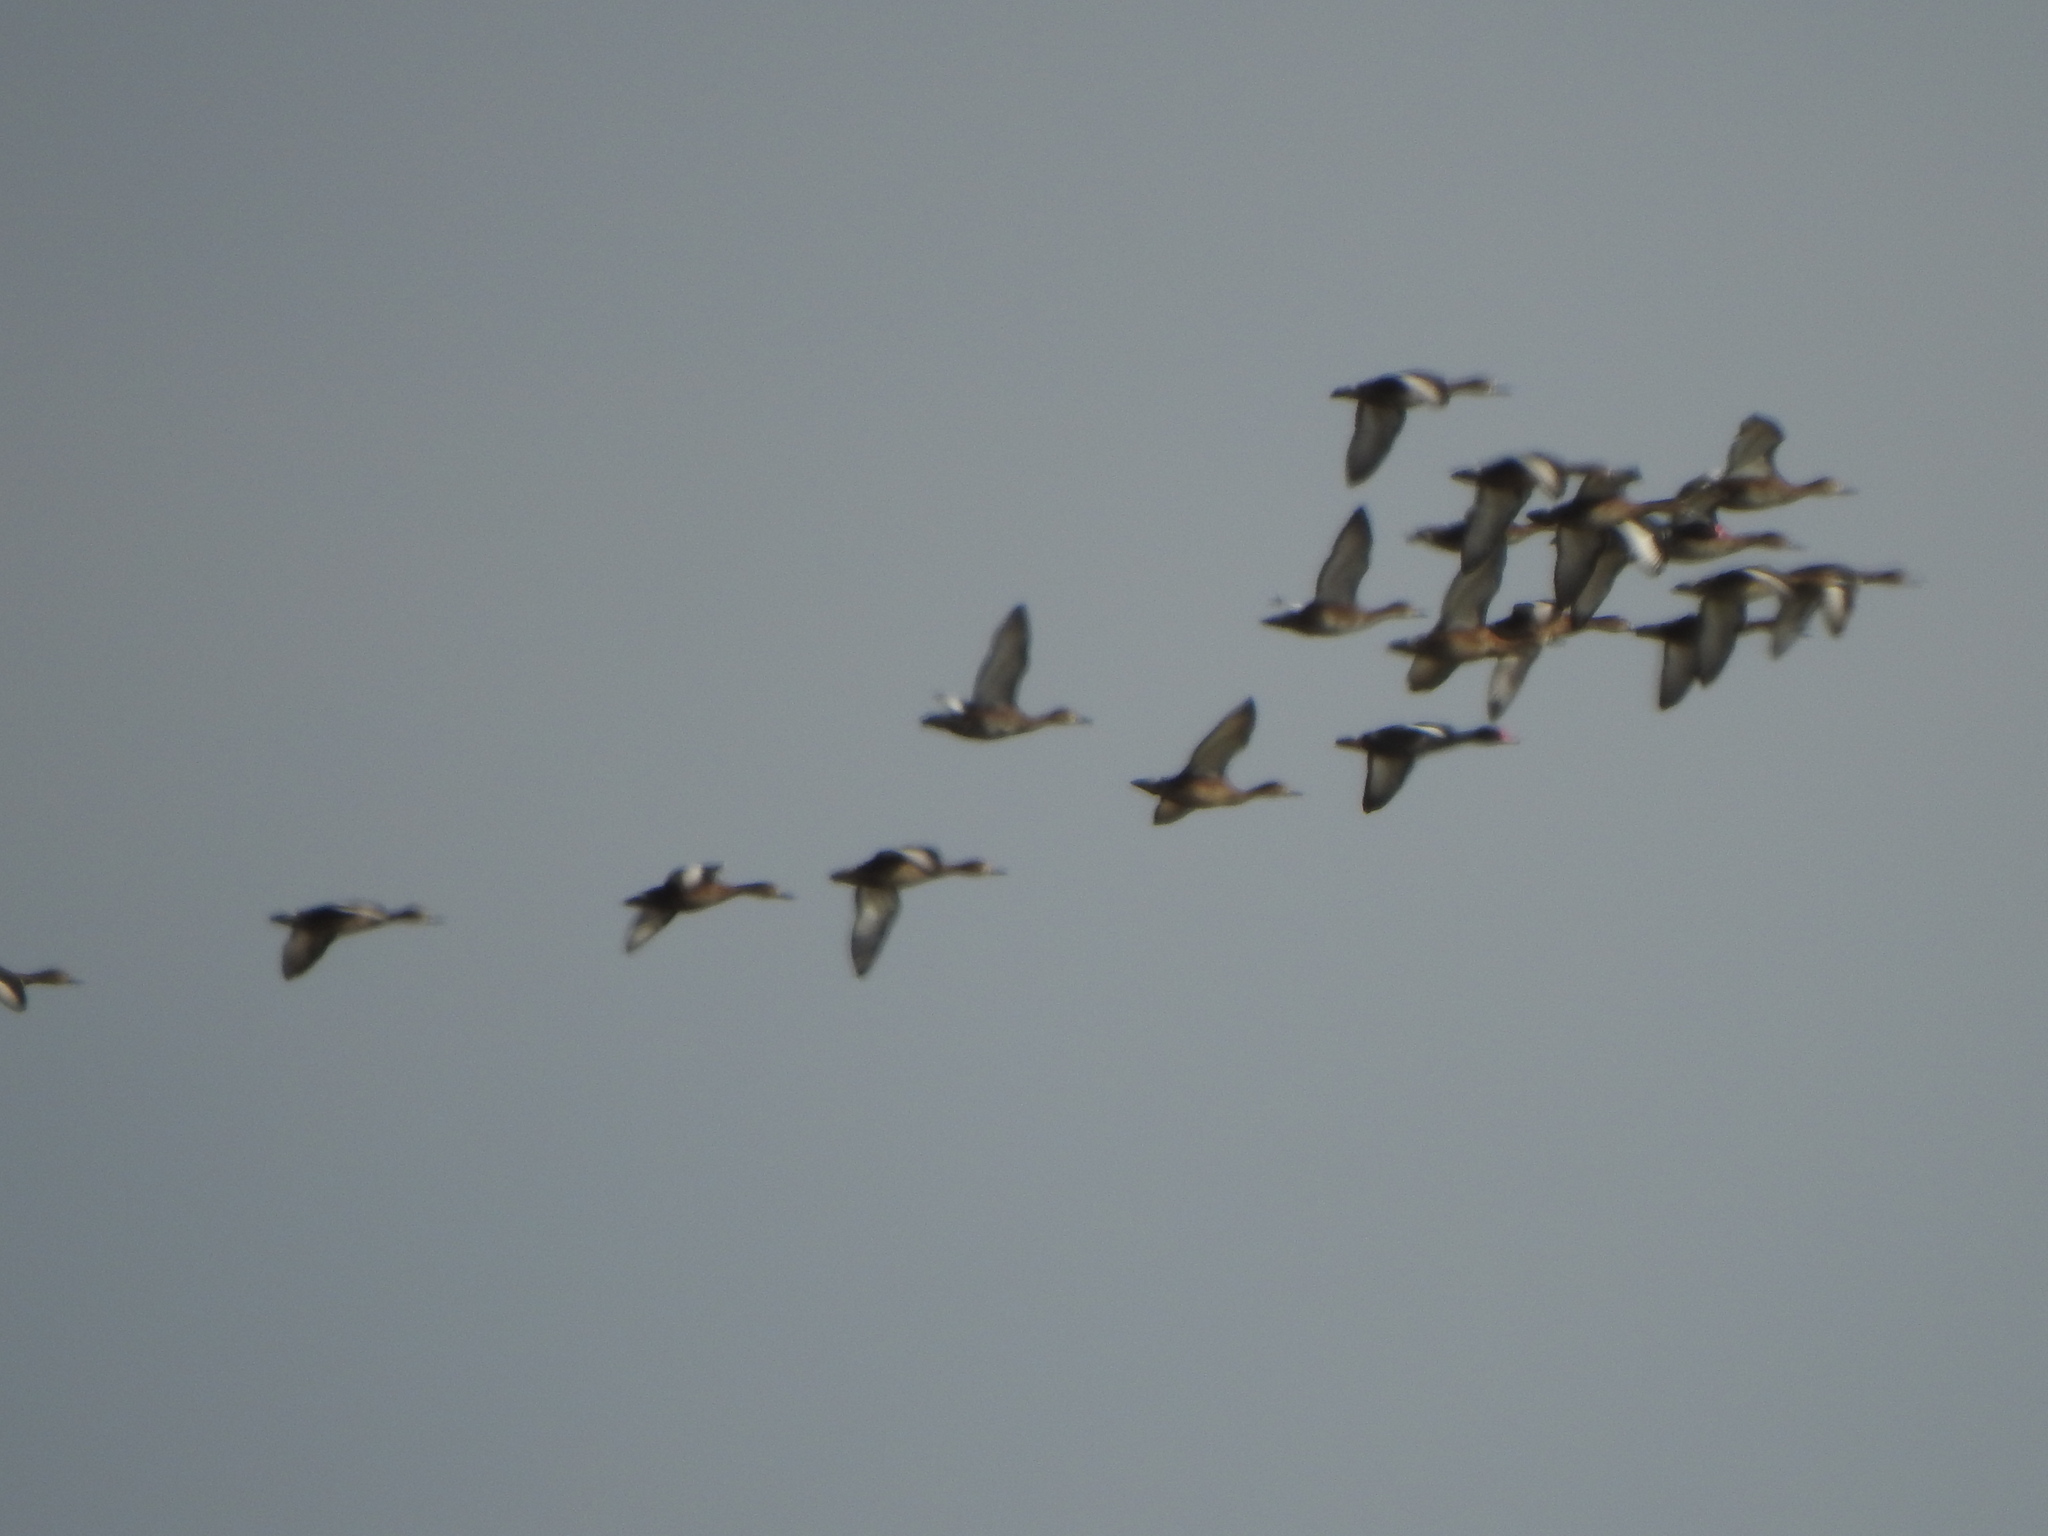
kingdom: Animalia
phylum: Chordata
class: Aves
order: Anseriformes
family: Anatidae
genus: Netta
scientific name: Netta peposaca
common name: Rosy-billed pochard
